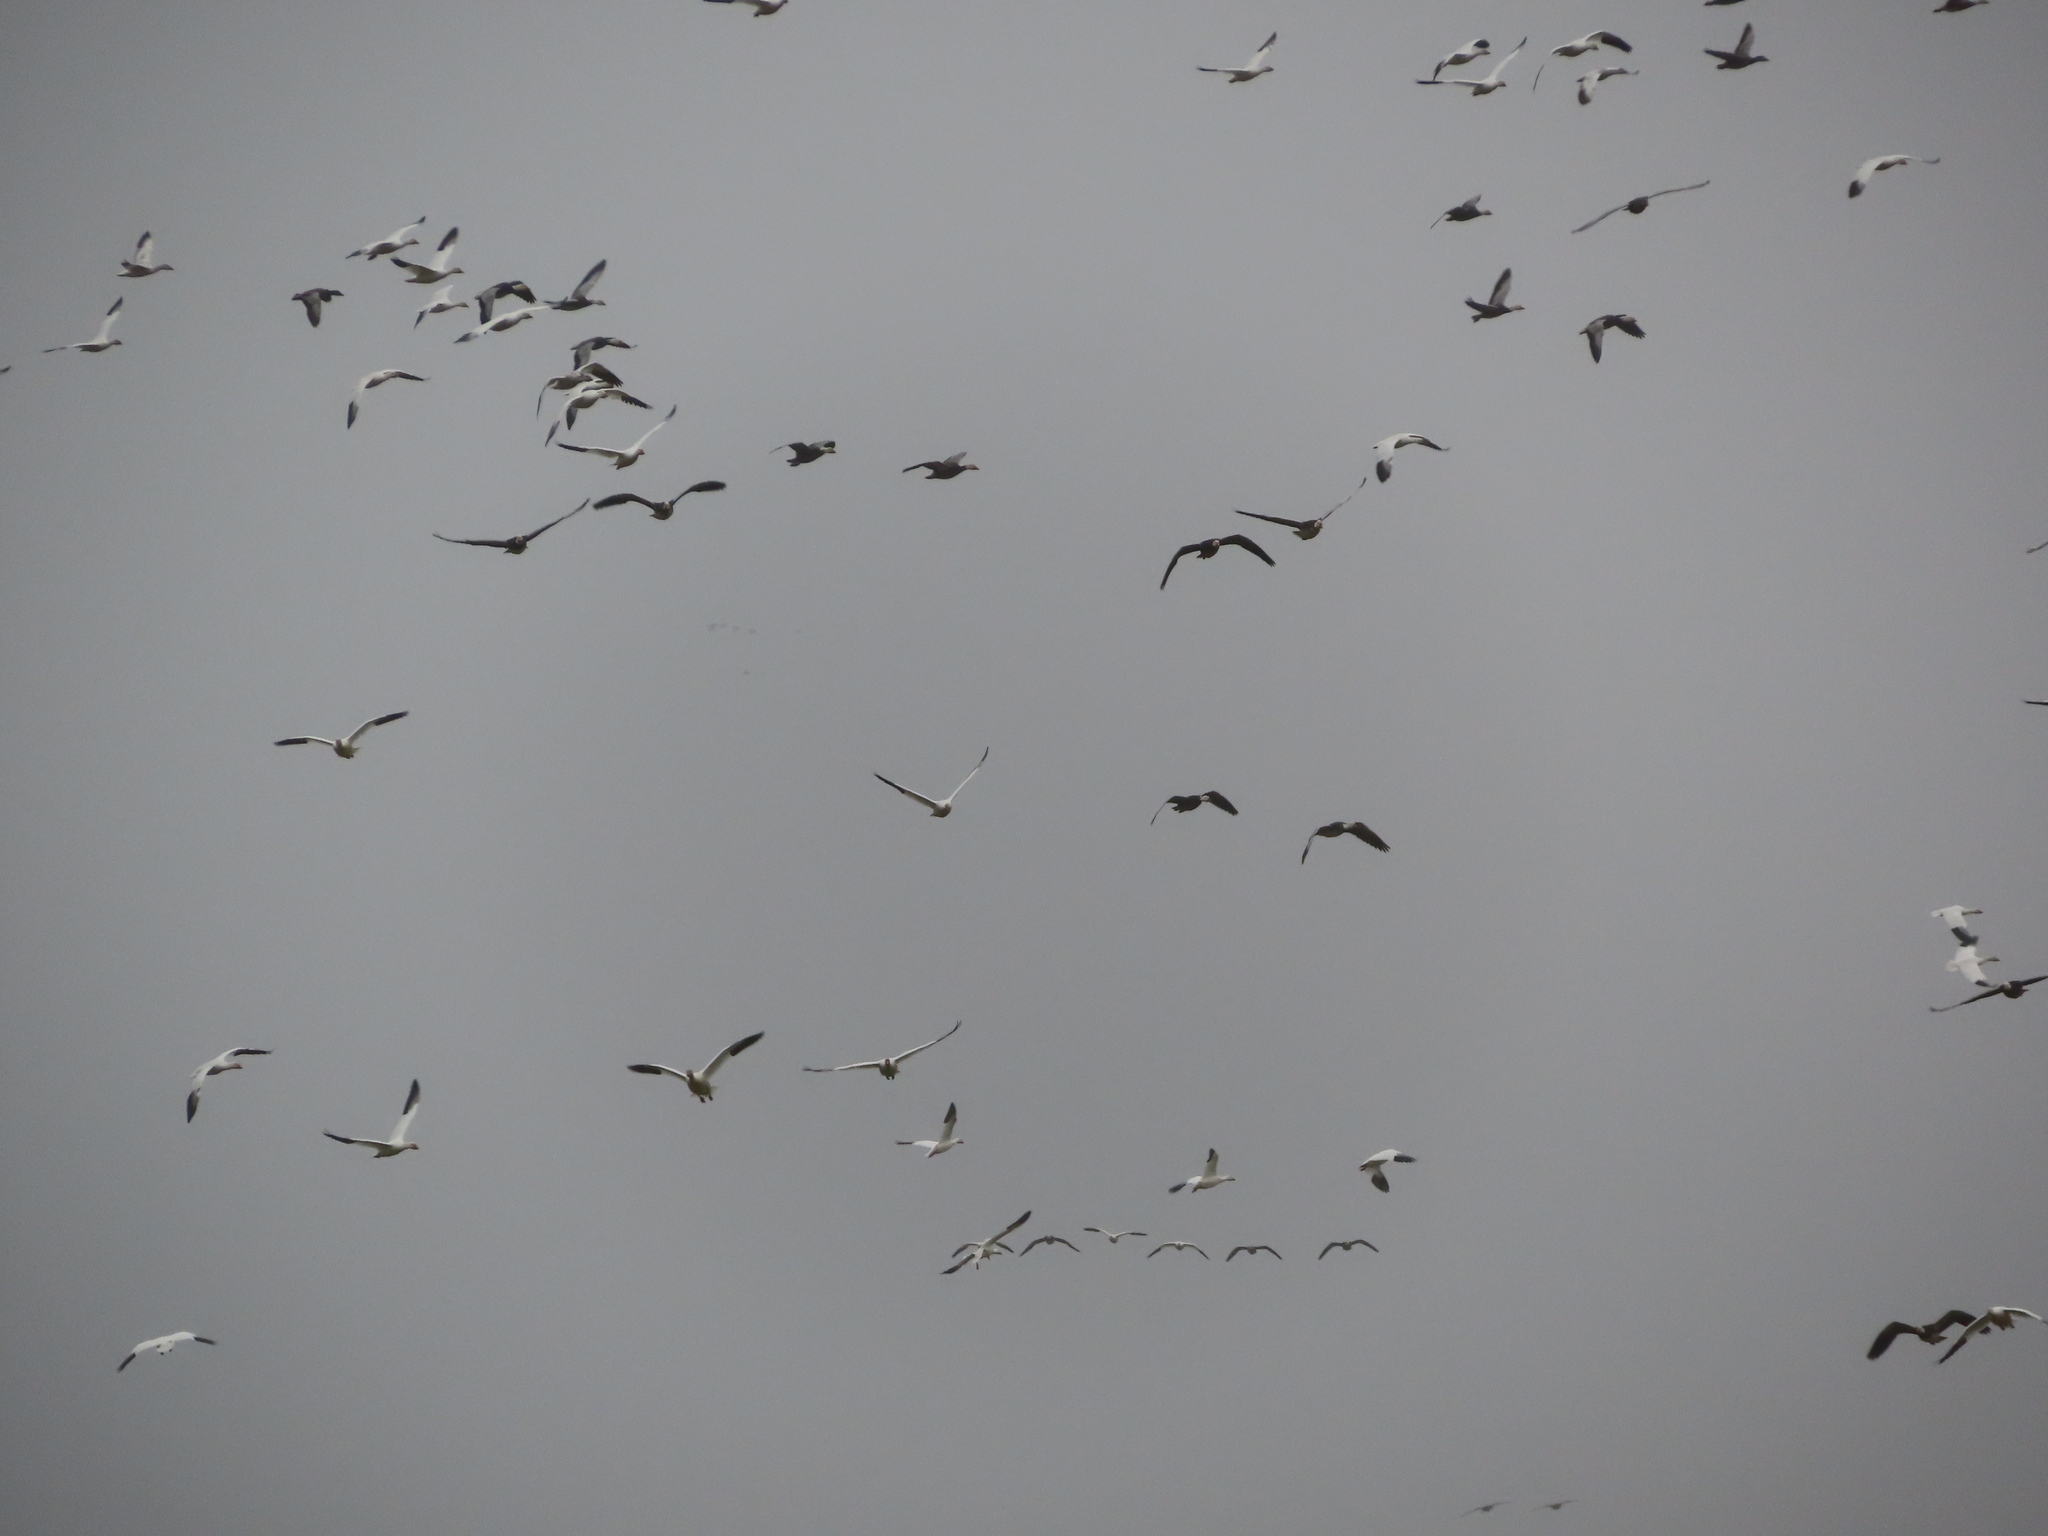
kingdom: Animalia
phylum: Chordata
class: Aves
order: Anseriformes
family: Anatidae
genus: Anser
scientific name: Anser caerulescens
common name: Snow goose
